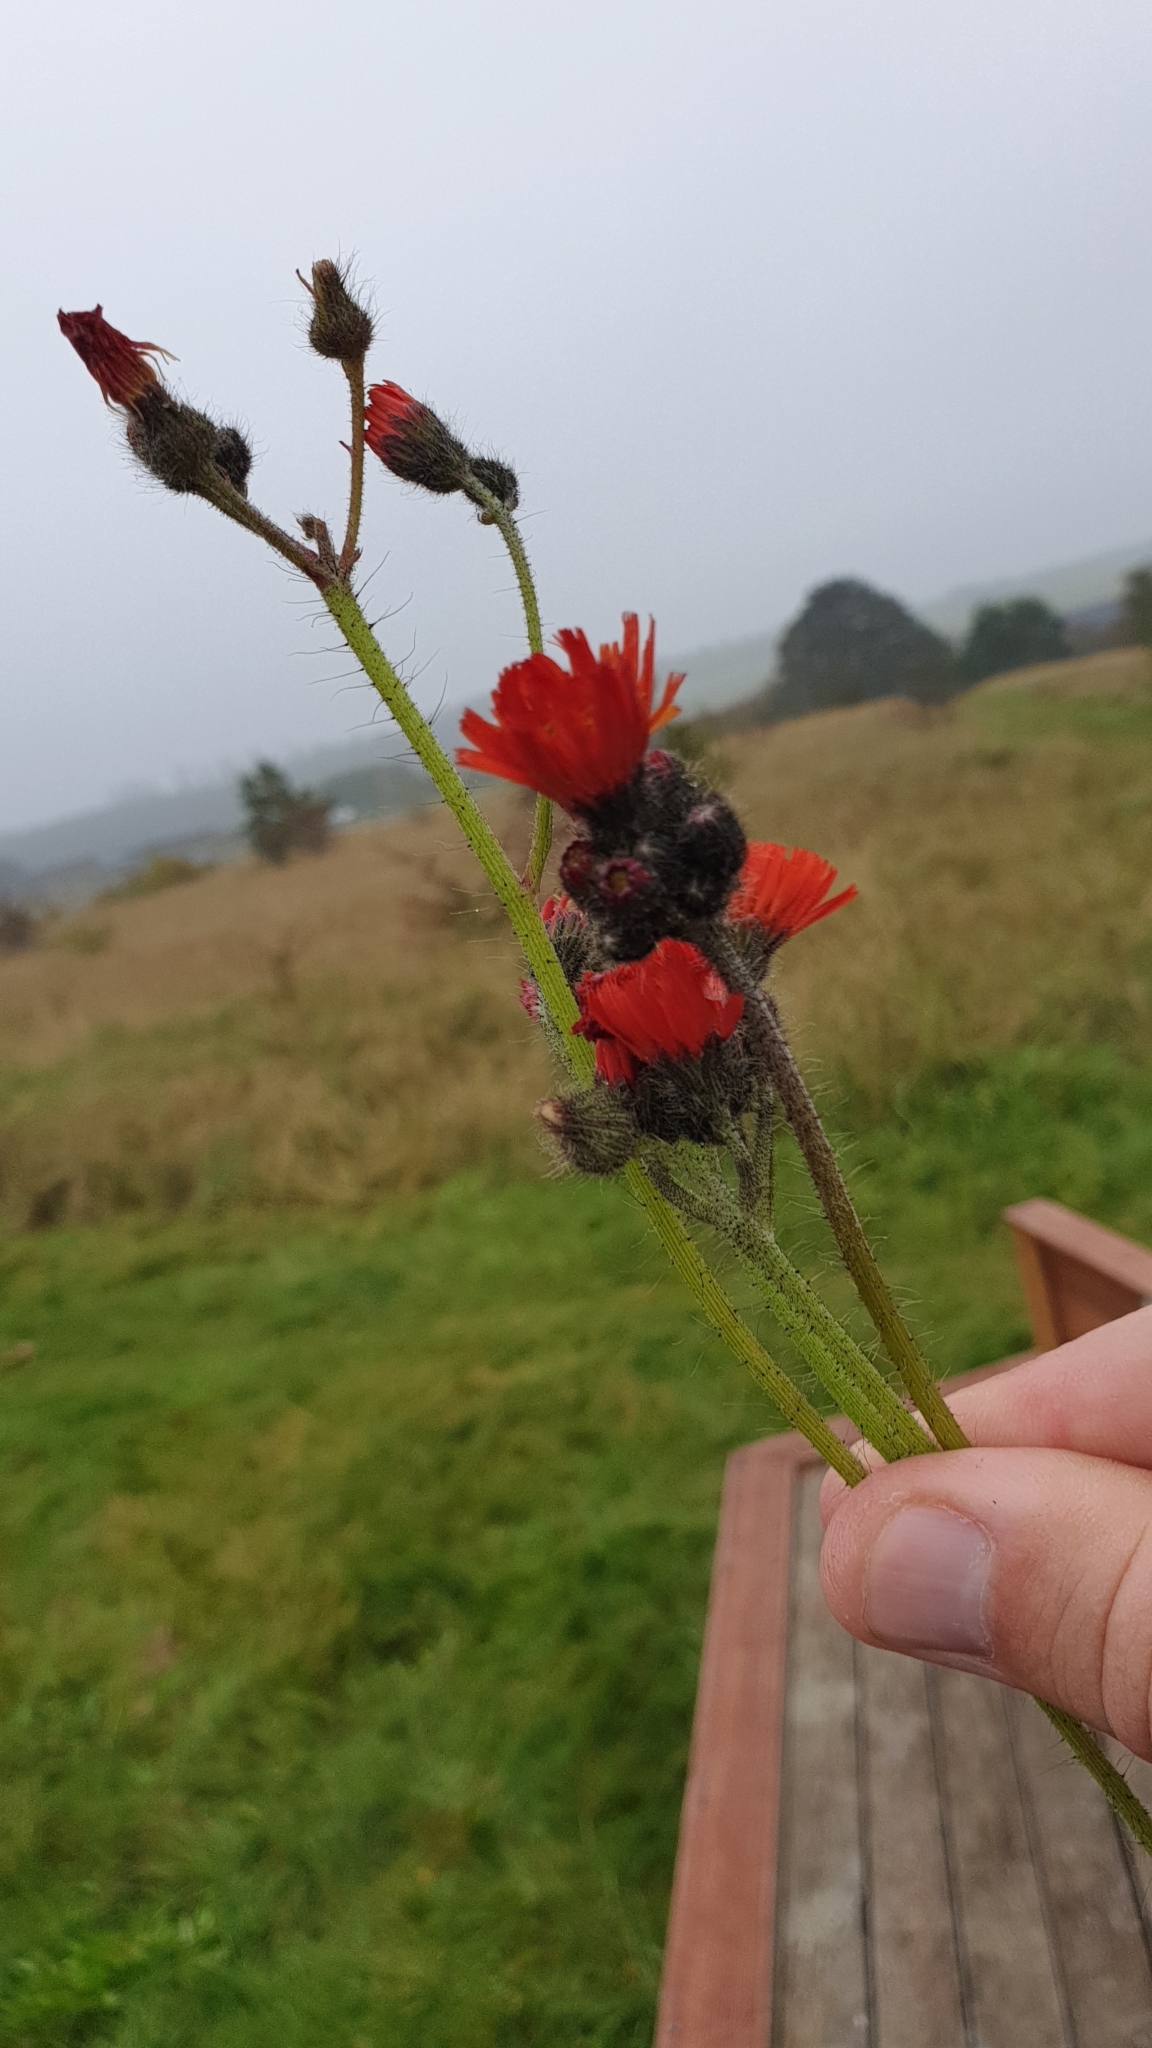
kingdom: Plantae
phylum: Tracheophyta
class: Magnoliopsida
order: Asterales
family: Asteraceae
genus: Pilosella
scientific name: Pilosella aurantiaca
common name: Fox-and-cubs
